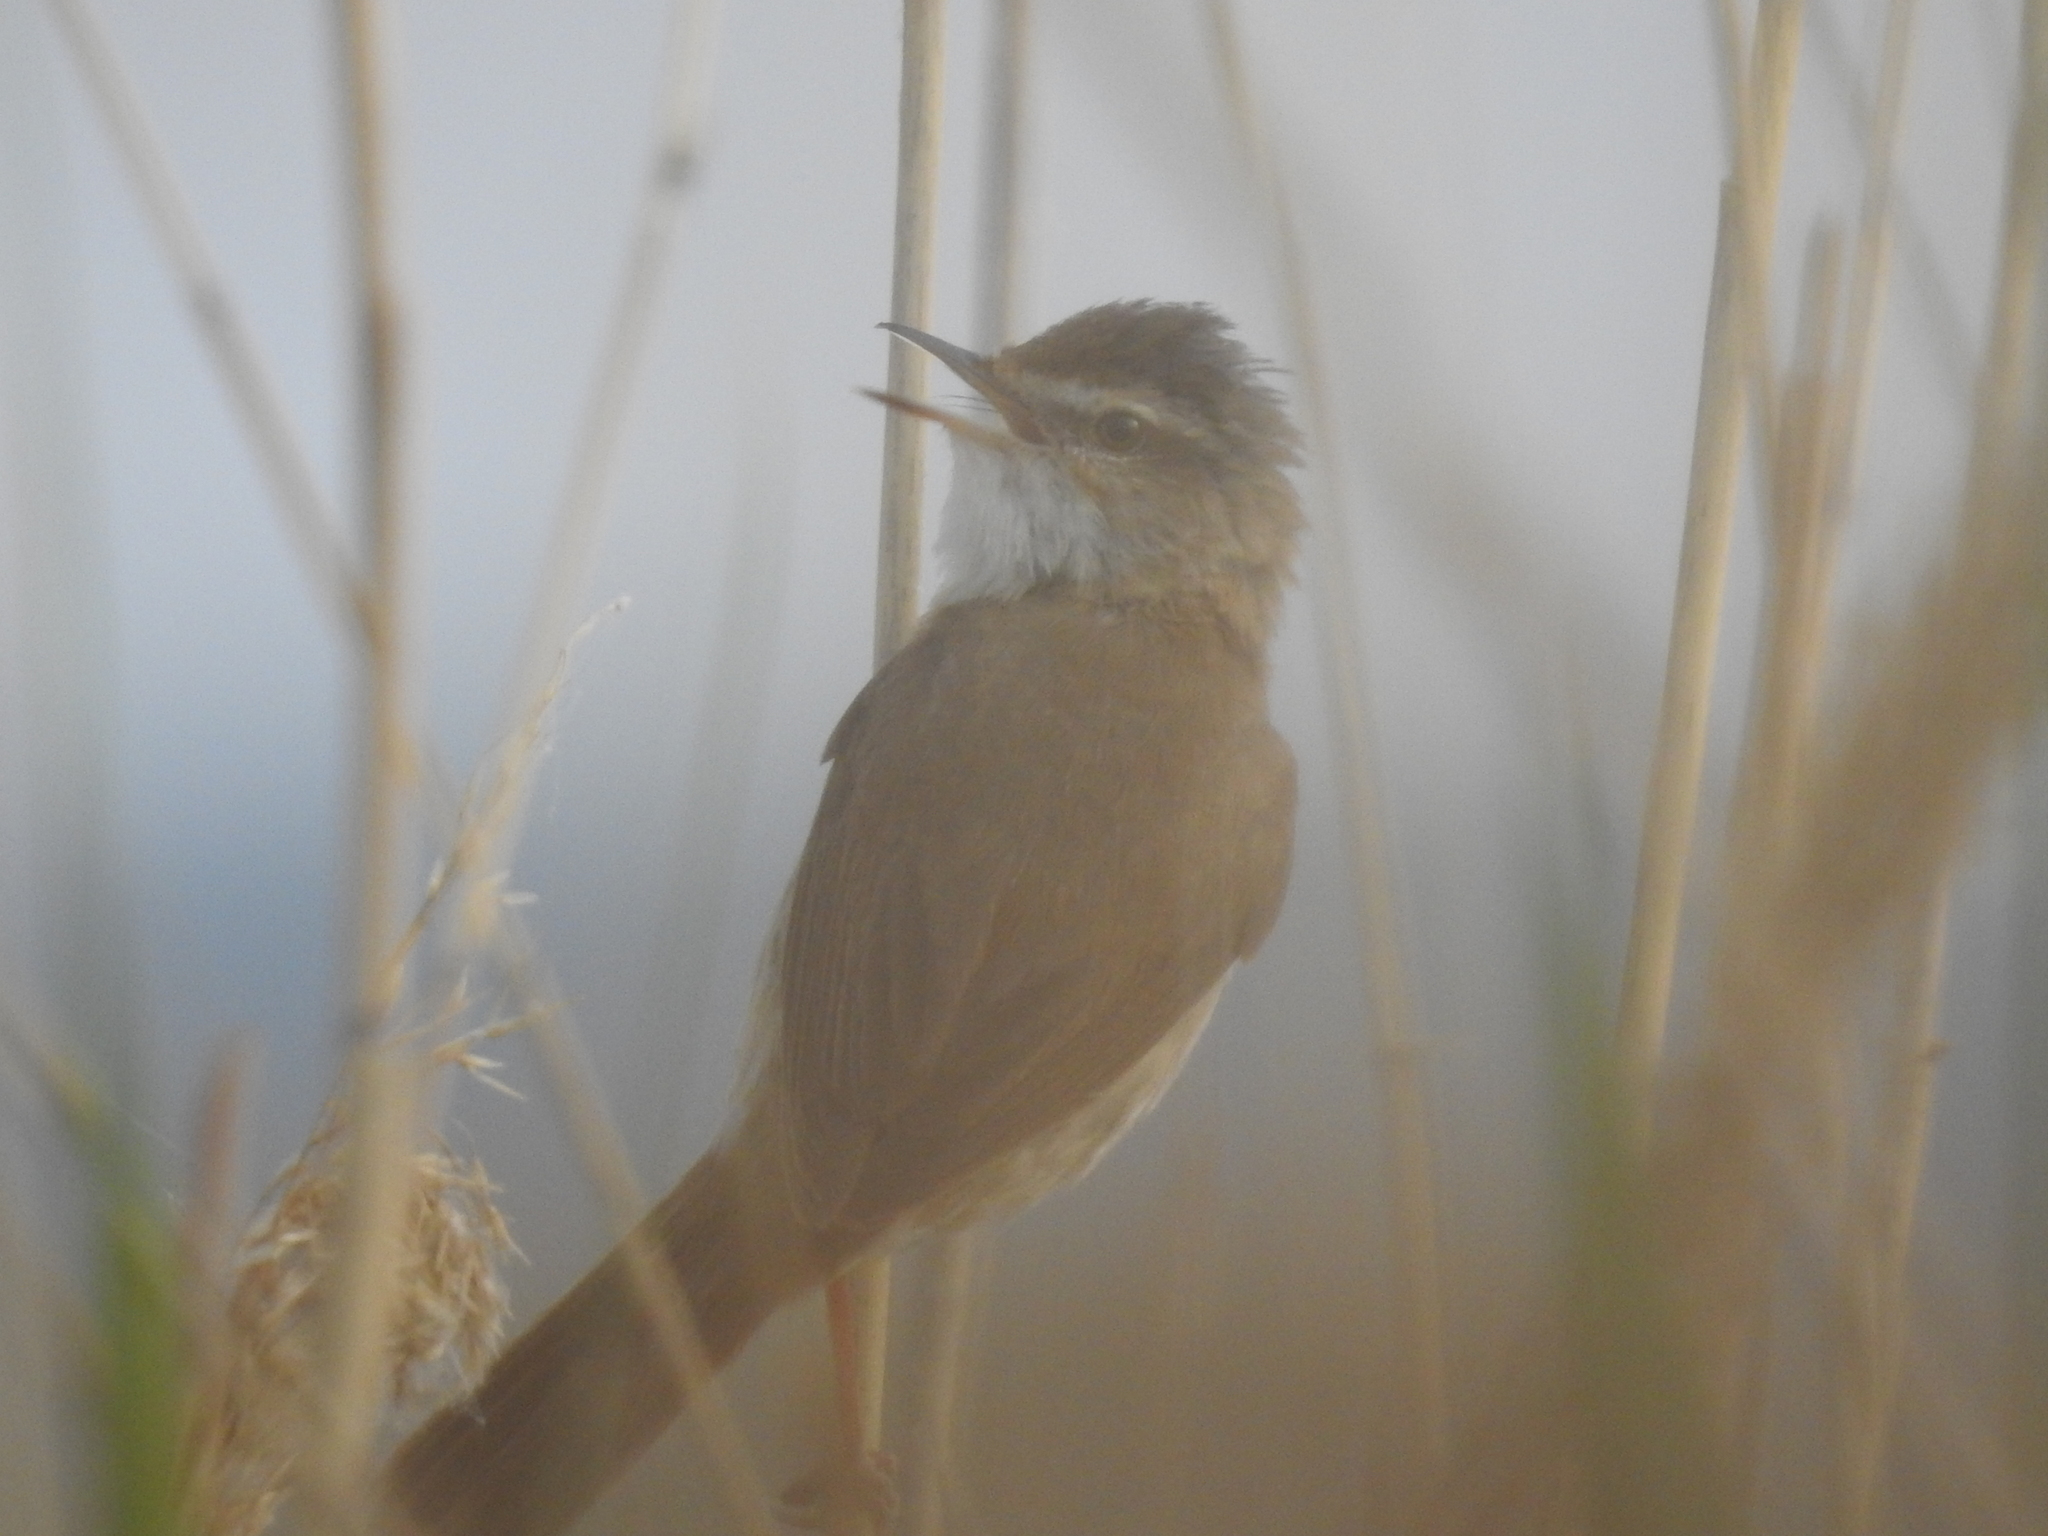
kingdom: Animalia
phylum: Chordata
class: Aves
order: Passeriformes
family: Acrocephalidae
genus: Acrocephalus
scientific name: Acrocephalus agricola
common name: Paddyfield warbler
